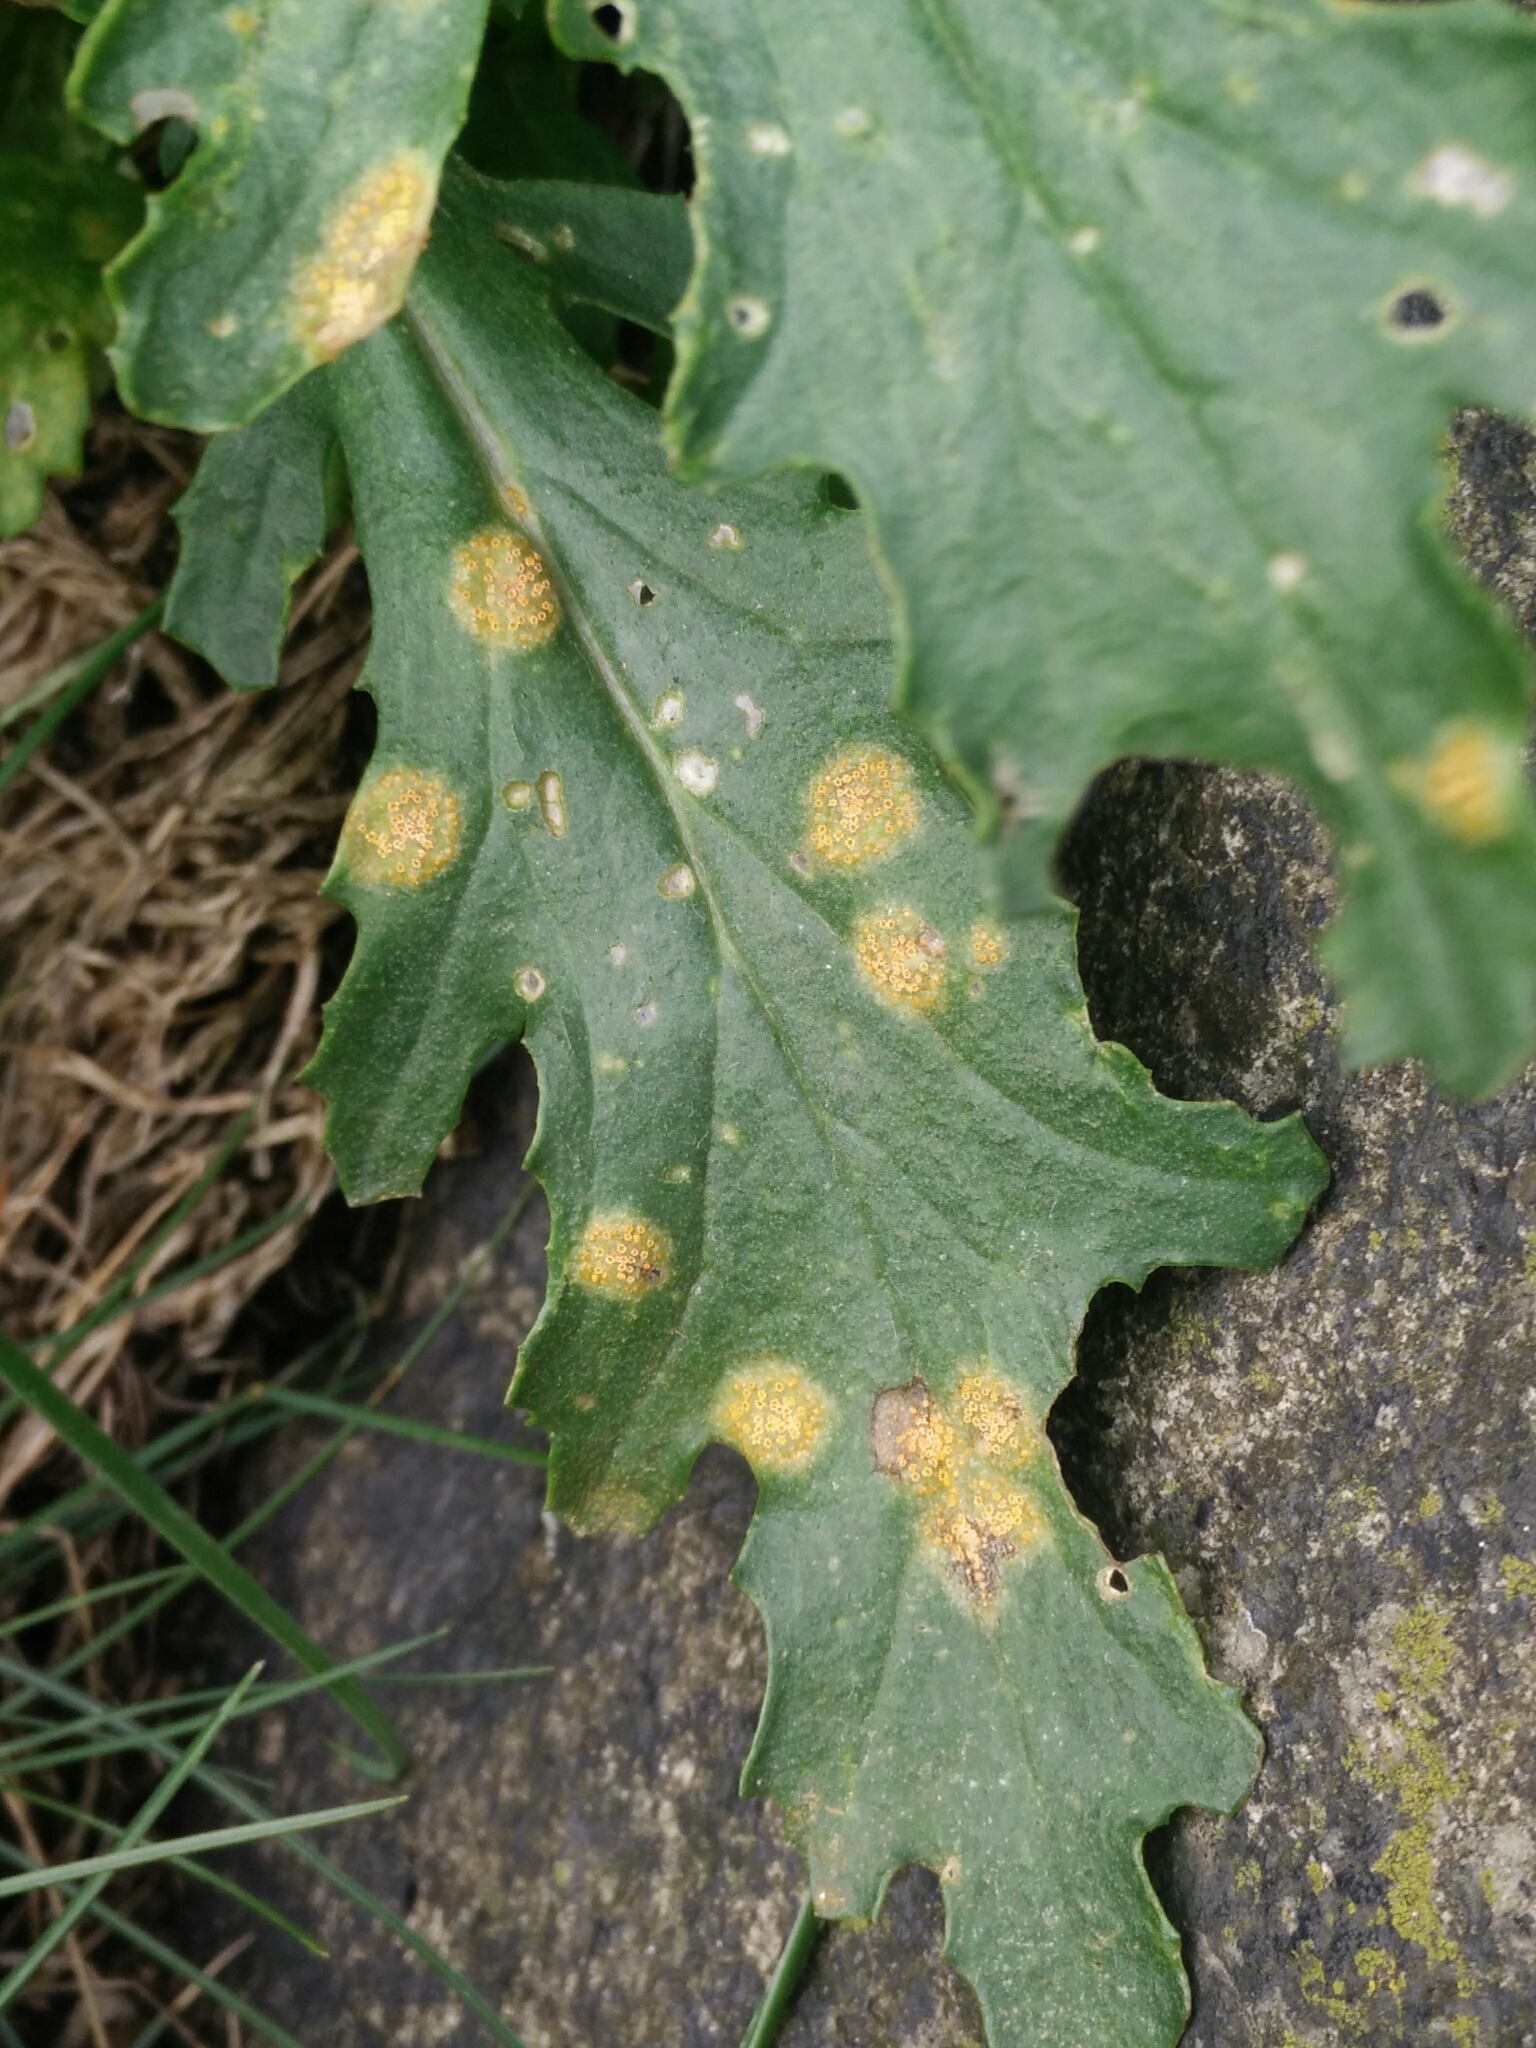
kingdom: Fungi
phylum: Basidiomycota
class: Pucciniomycetes
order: Pucciniales
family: Pucciniaceae
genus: Puccinia
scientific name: Puccinia lagenophorae
